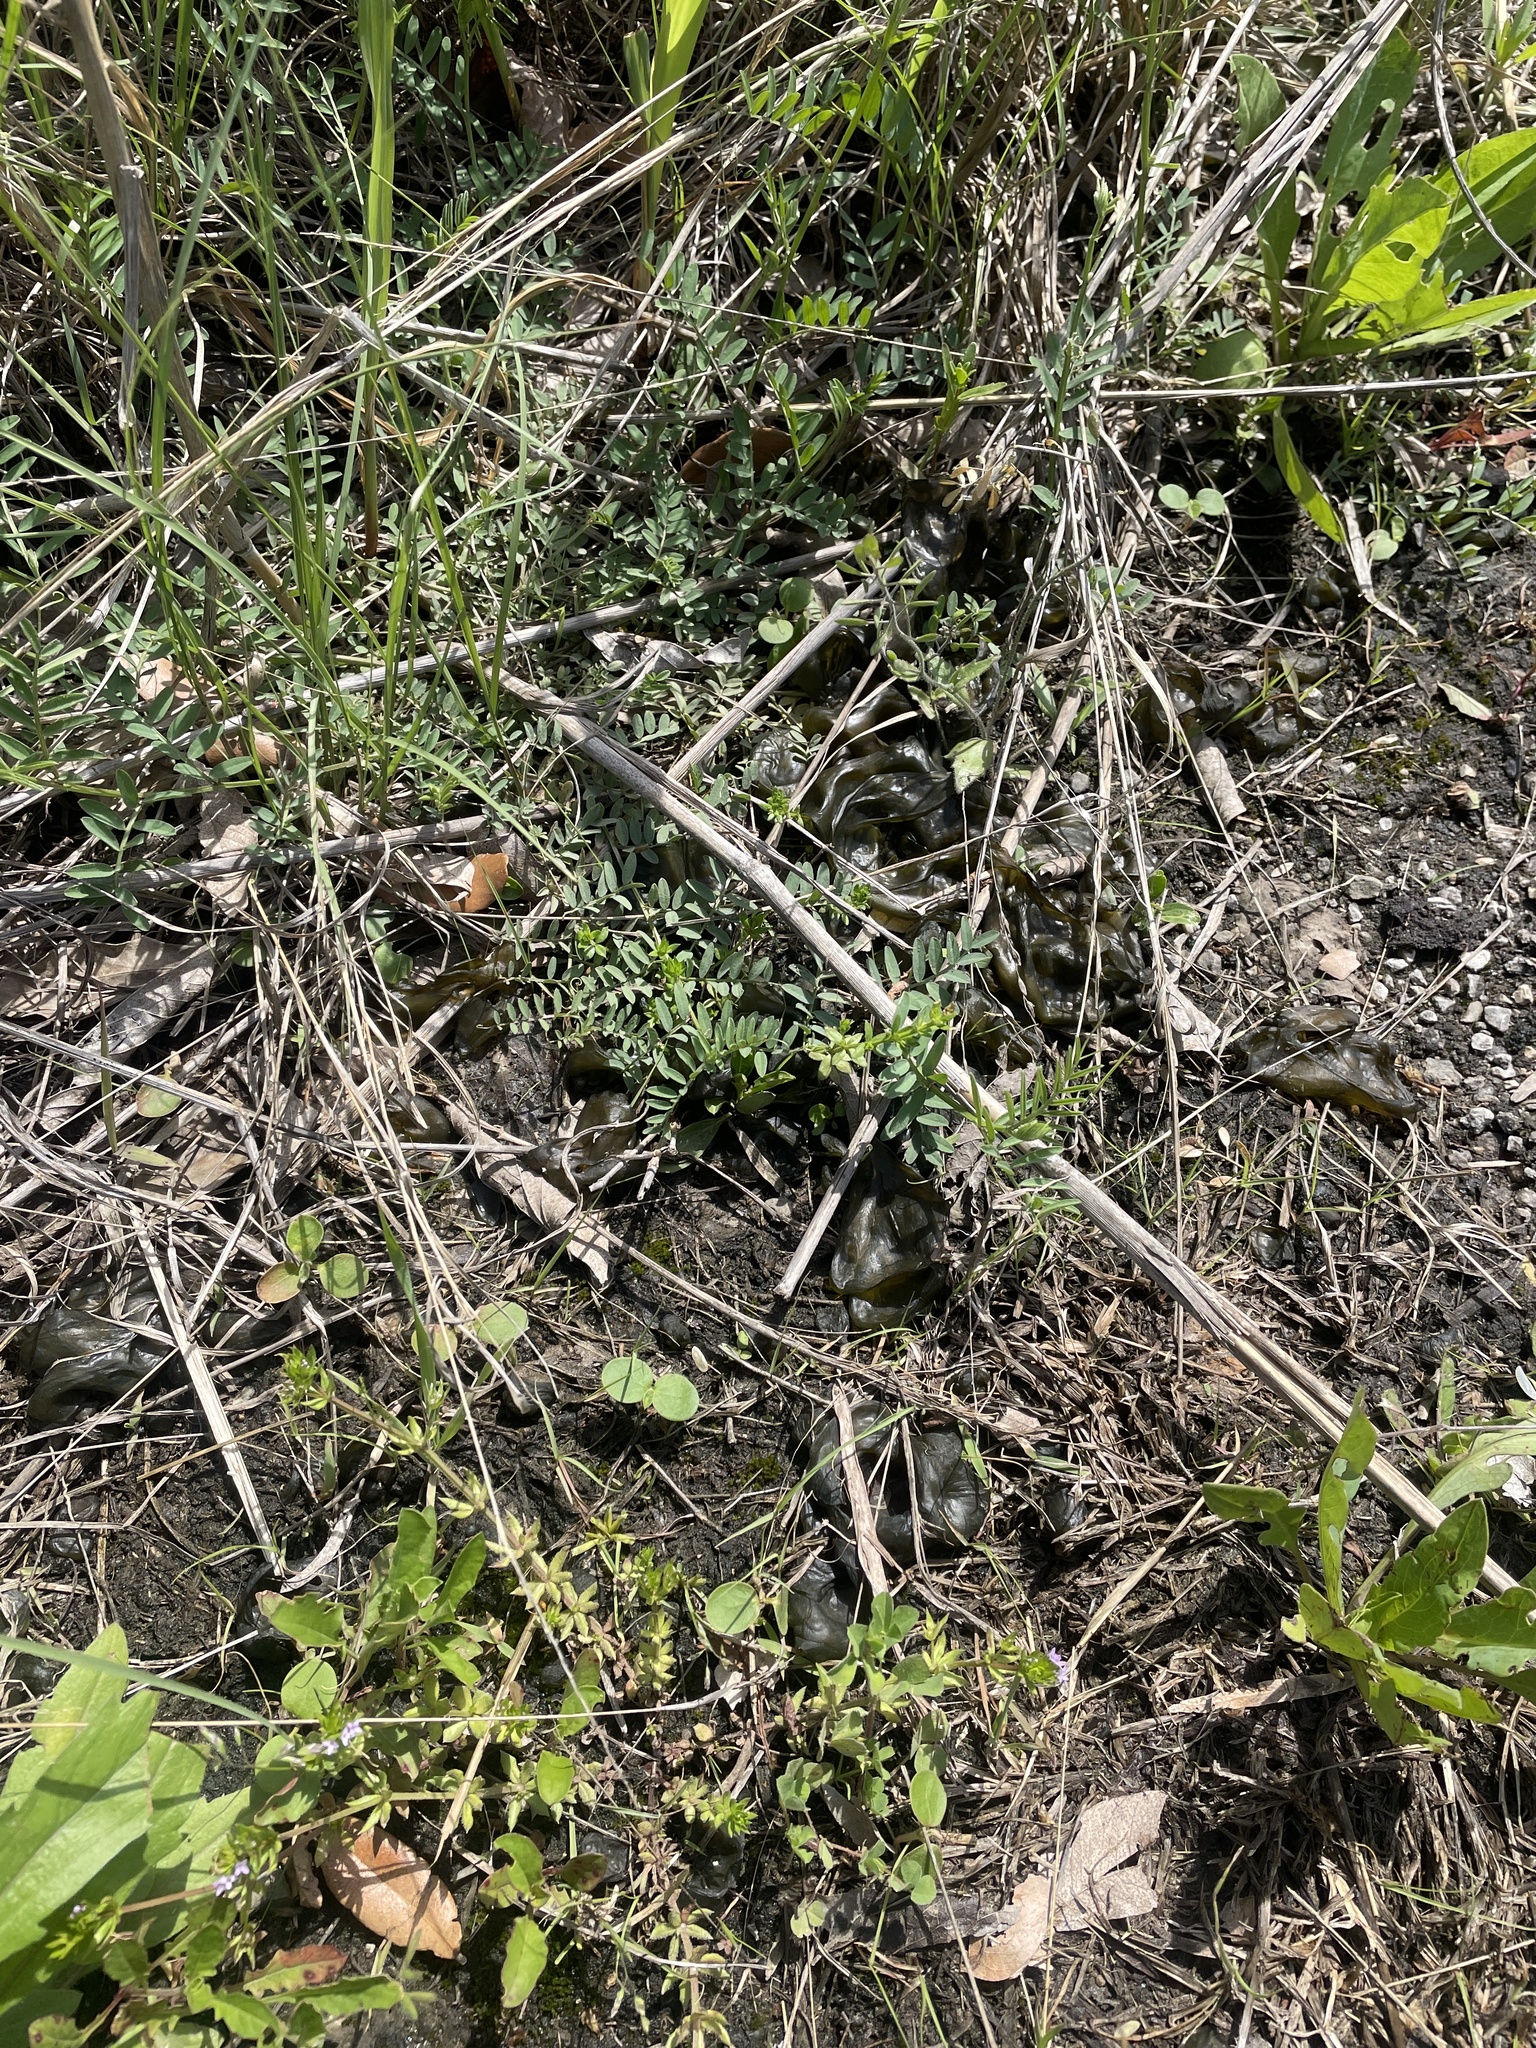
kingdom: Bacteria
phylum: Cyanobacteria
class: Cyanobacteriia
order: Cyanobacteriales
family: Nostocaceae
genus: Nostoc
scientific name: Nostoc commune
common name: Star jelly
